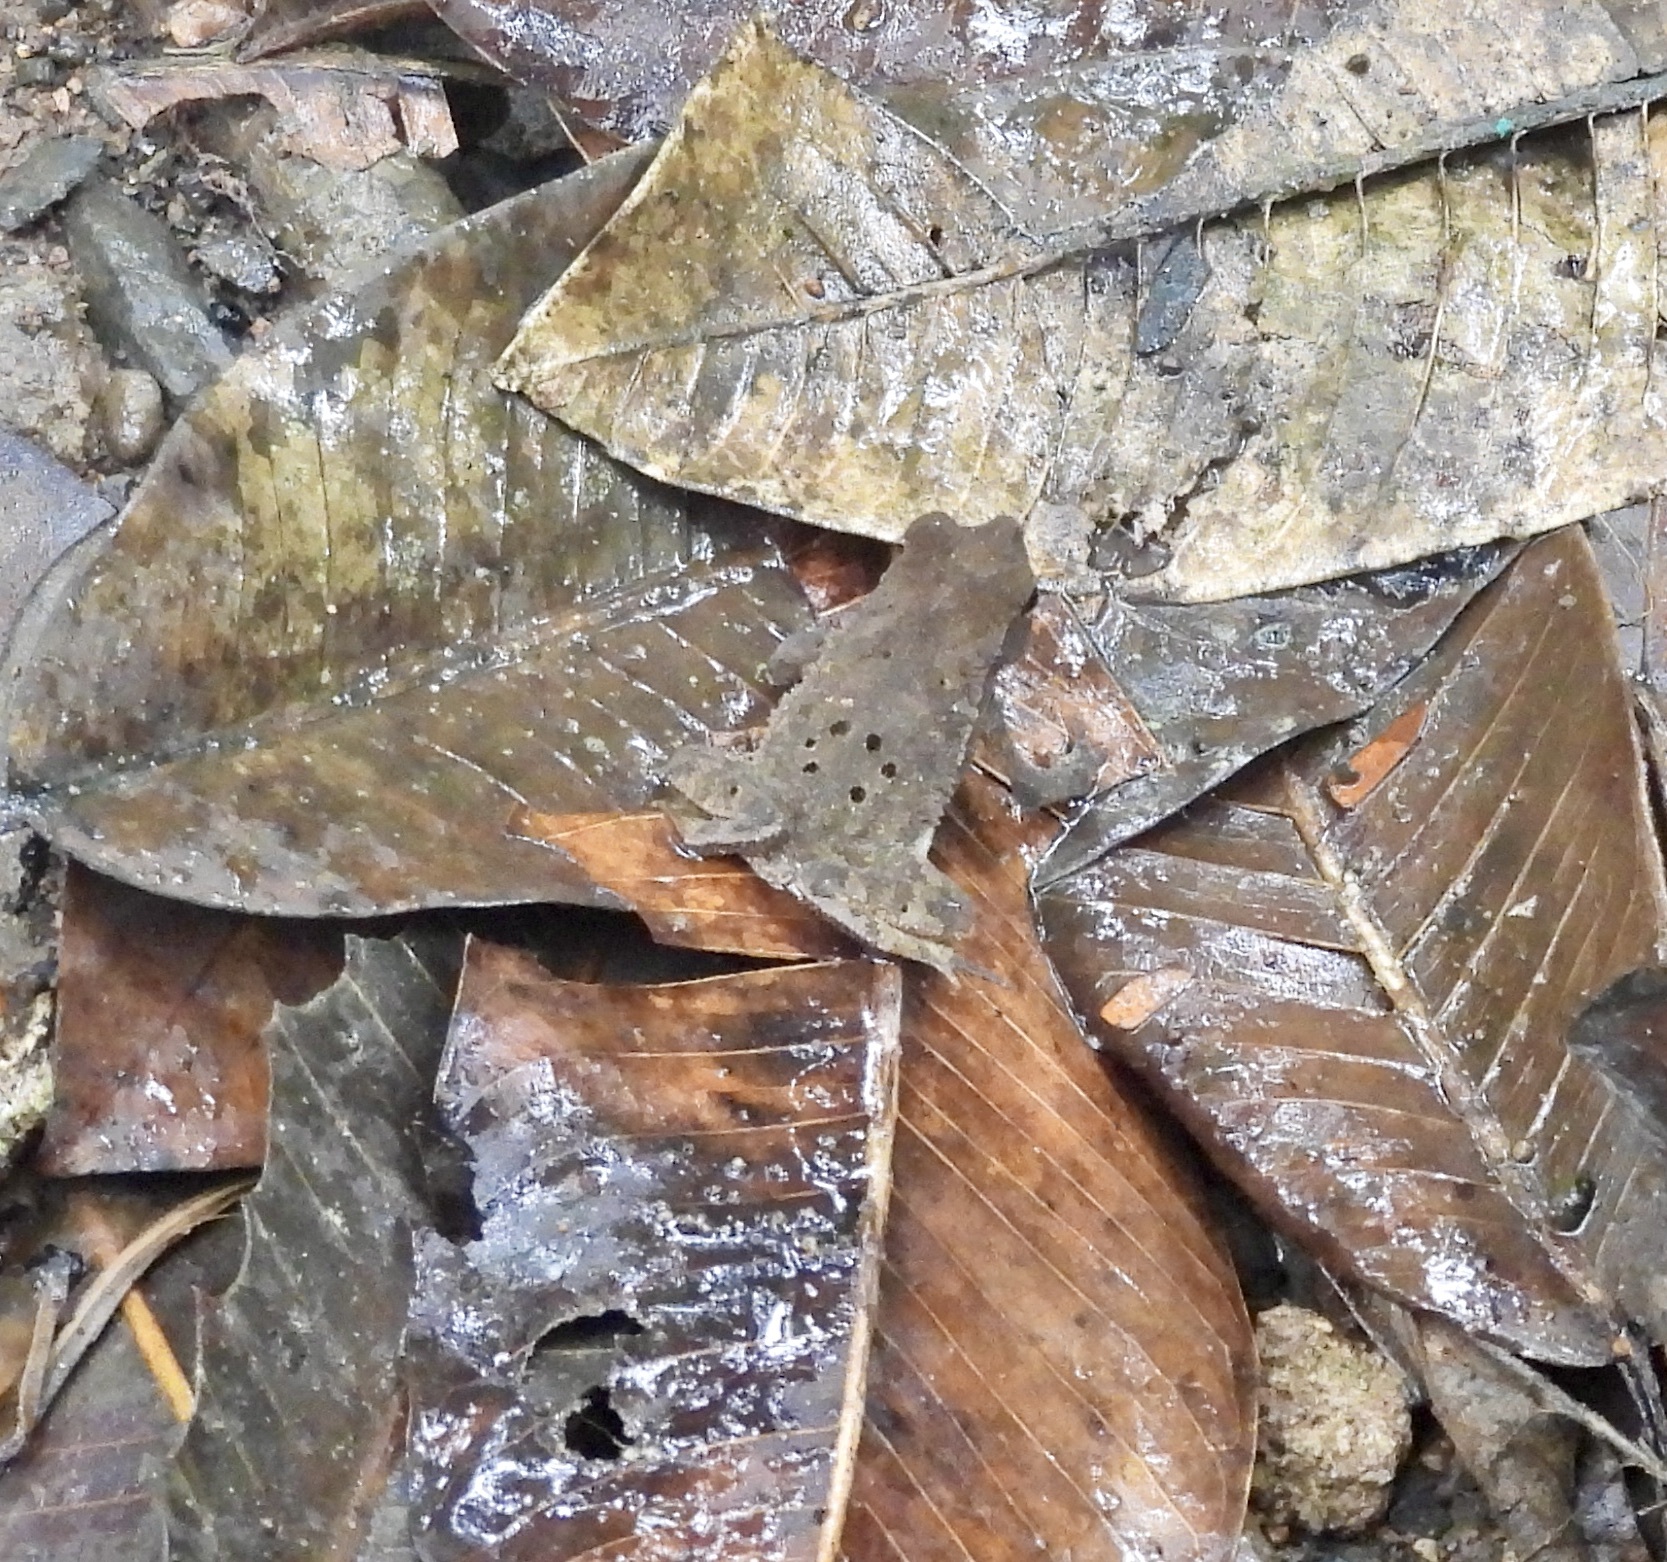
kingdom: Animalia
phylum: Chordata
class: Amphibia
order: Anura
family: Bufonidae
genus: Rhinella
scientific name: Rhinella alata
